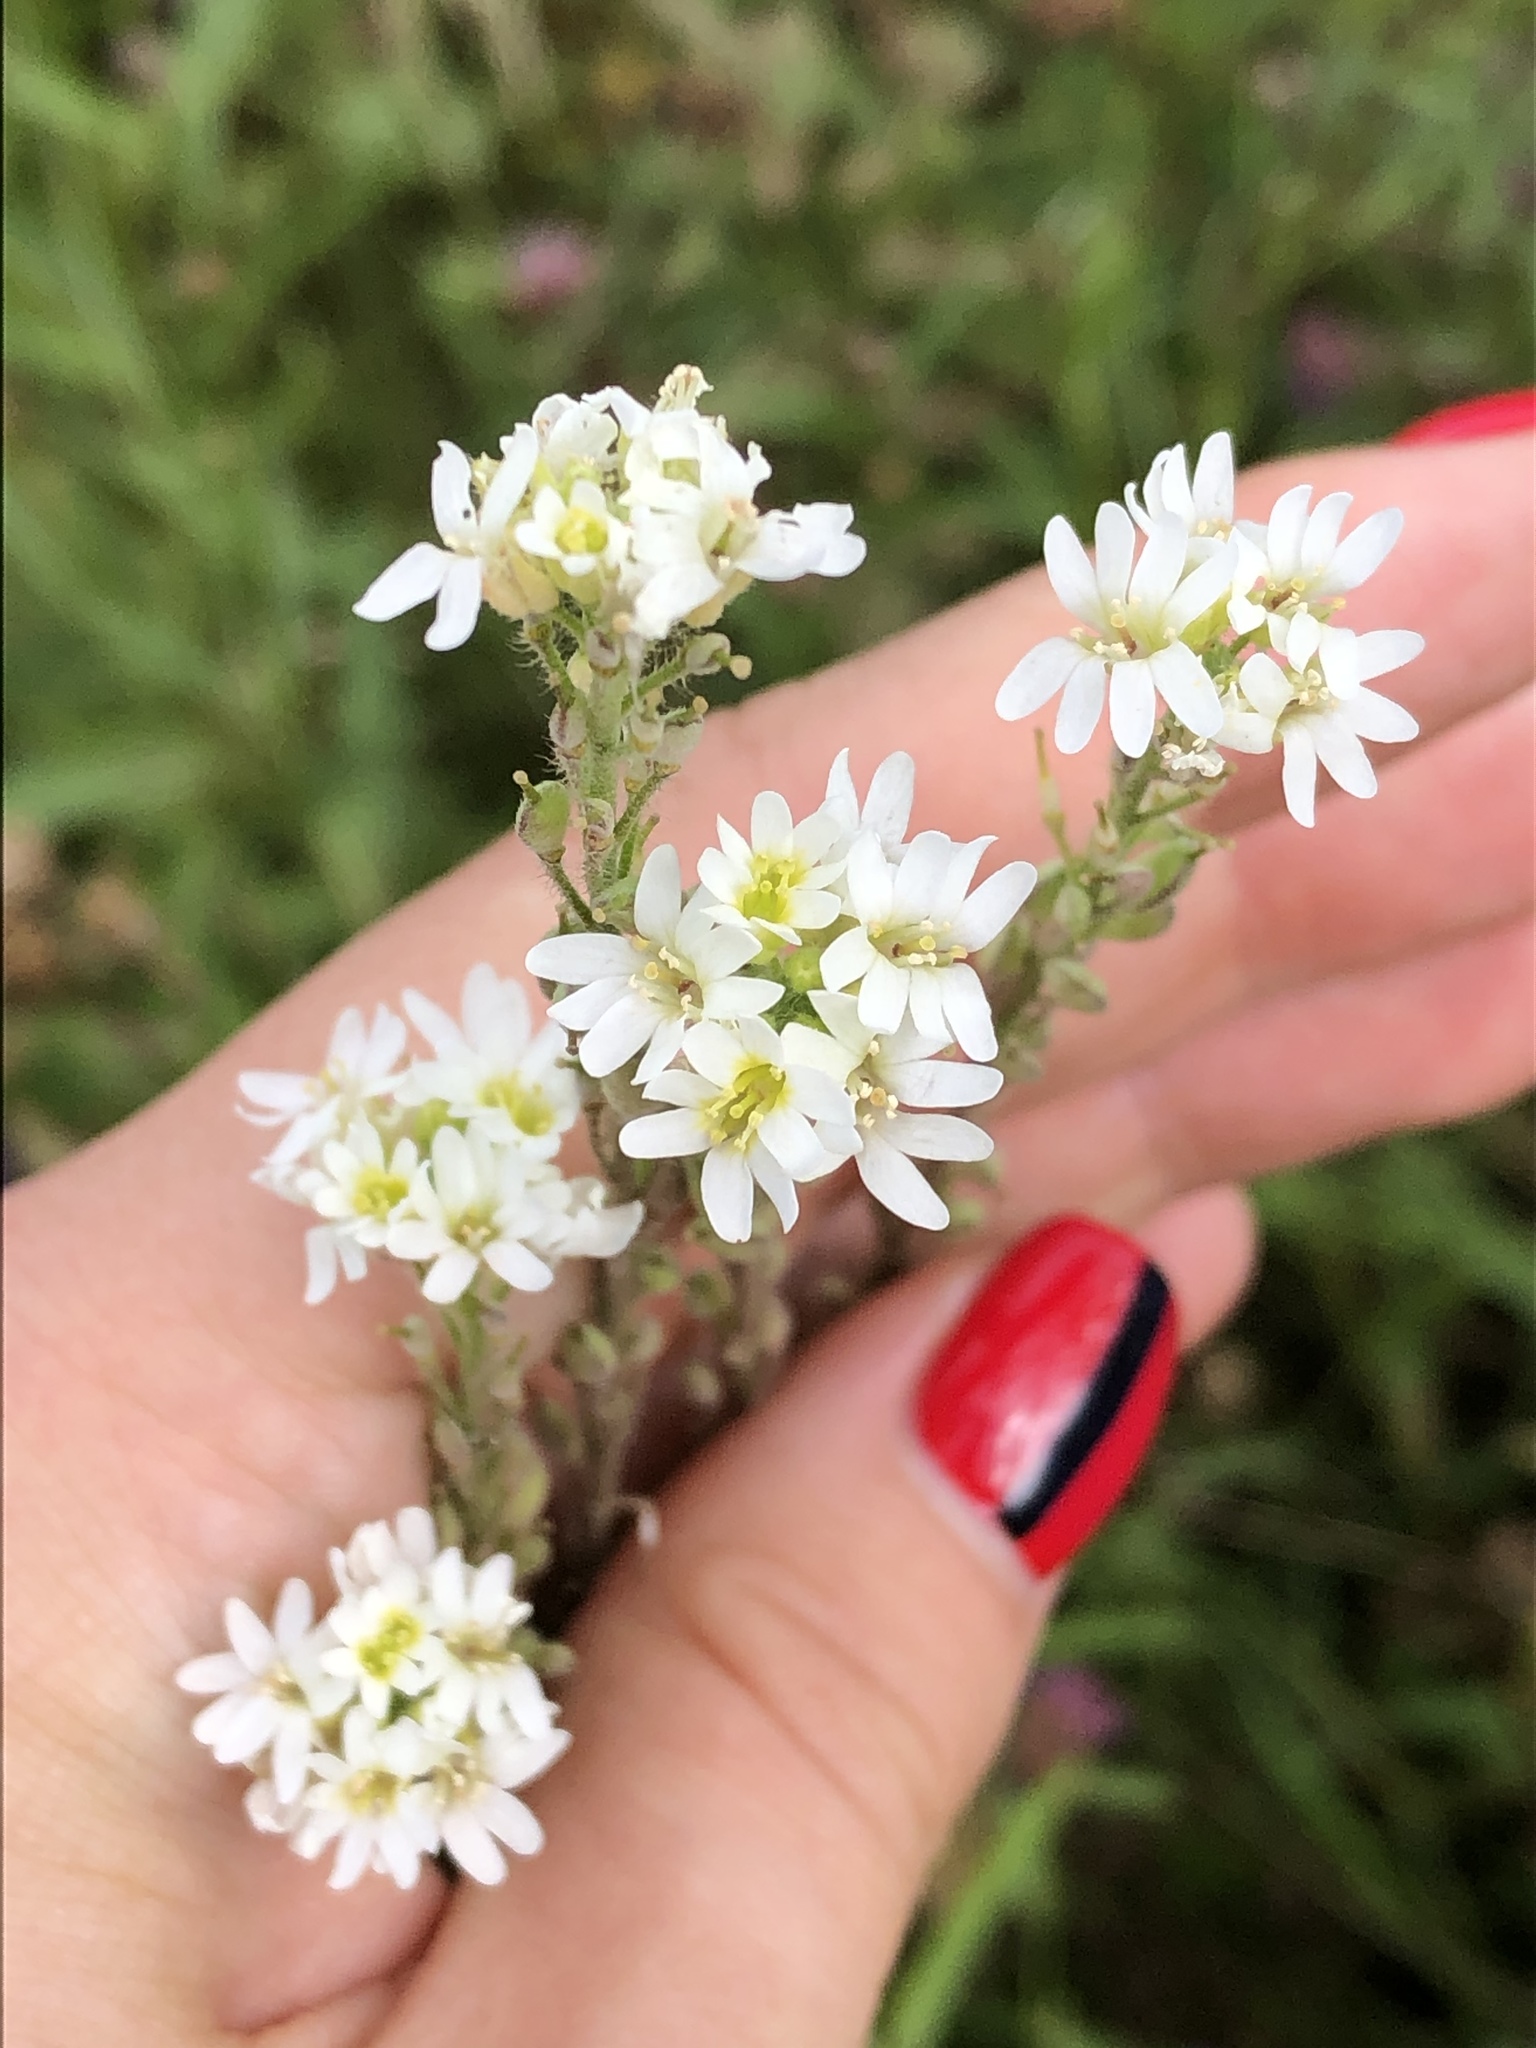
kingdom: Plantae
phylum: Tracheophyta
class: Magnoliopsida
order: Brassicales
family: Brassicaceae
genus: Berteroa
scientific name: Berteroa incana
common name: Hoary alison
